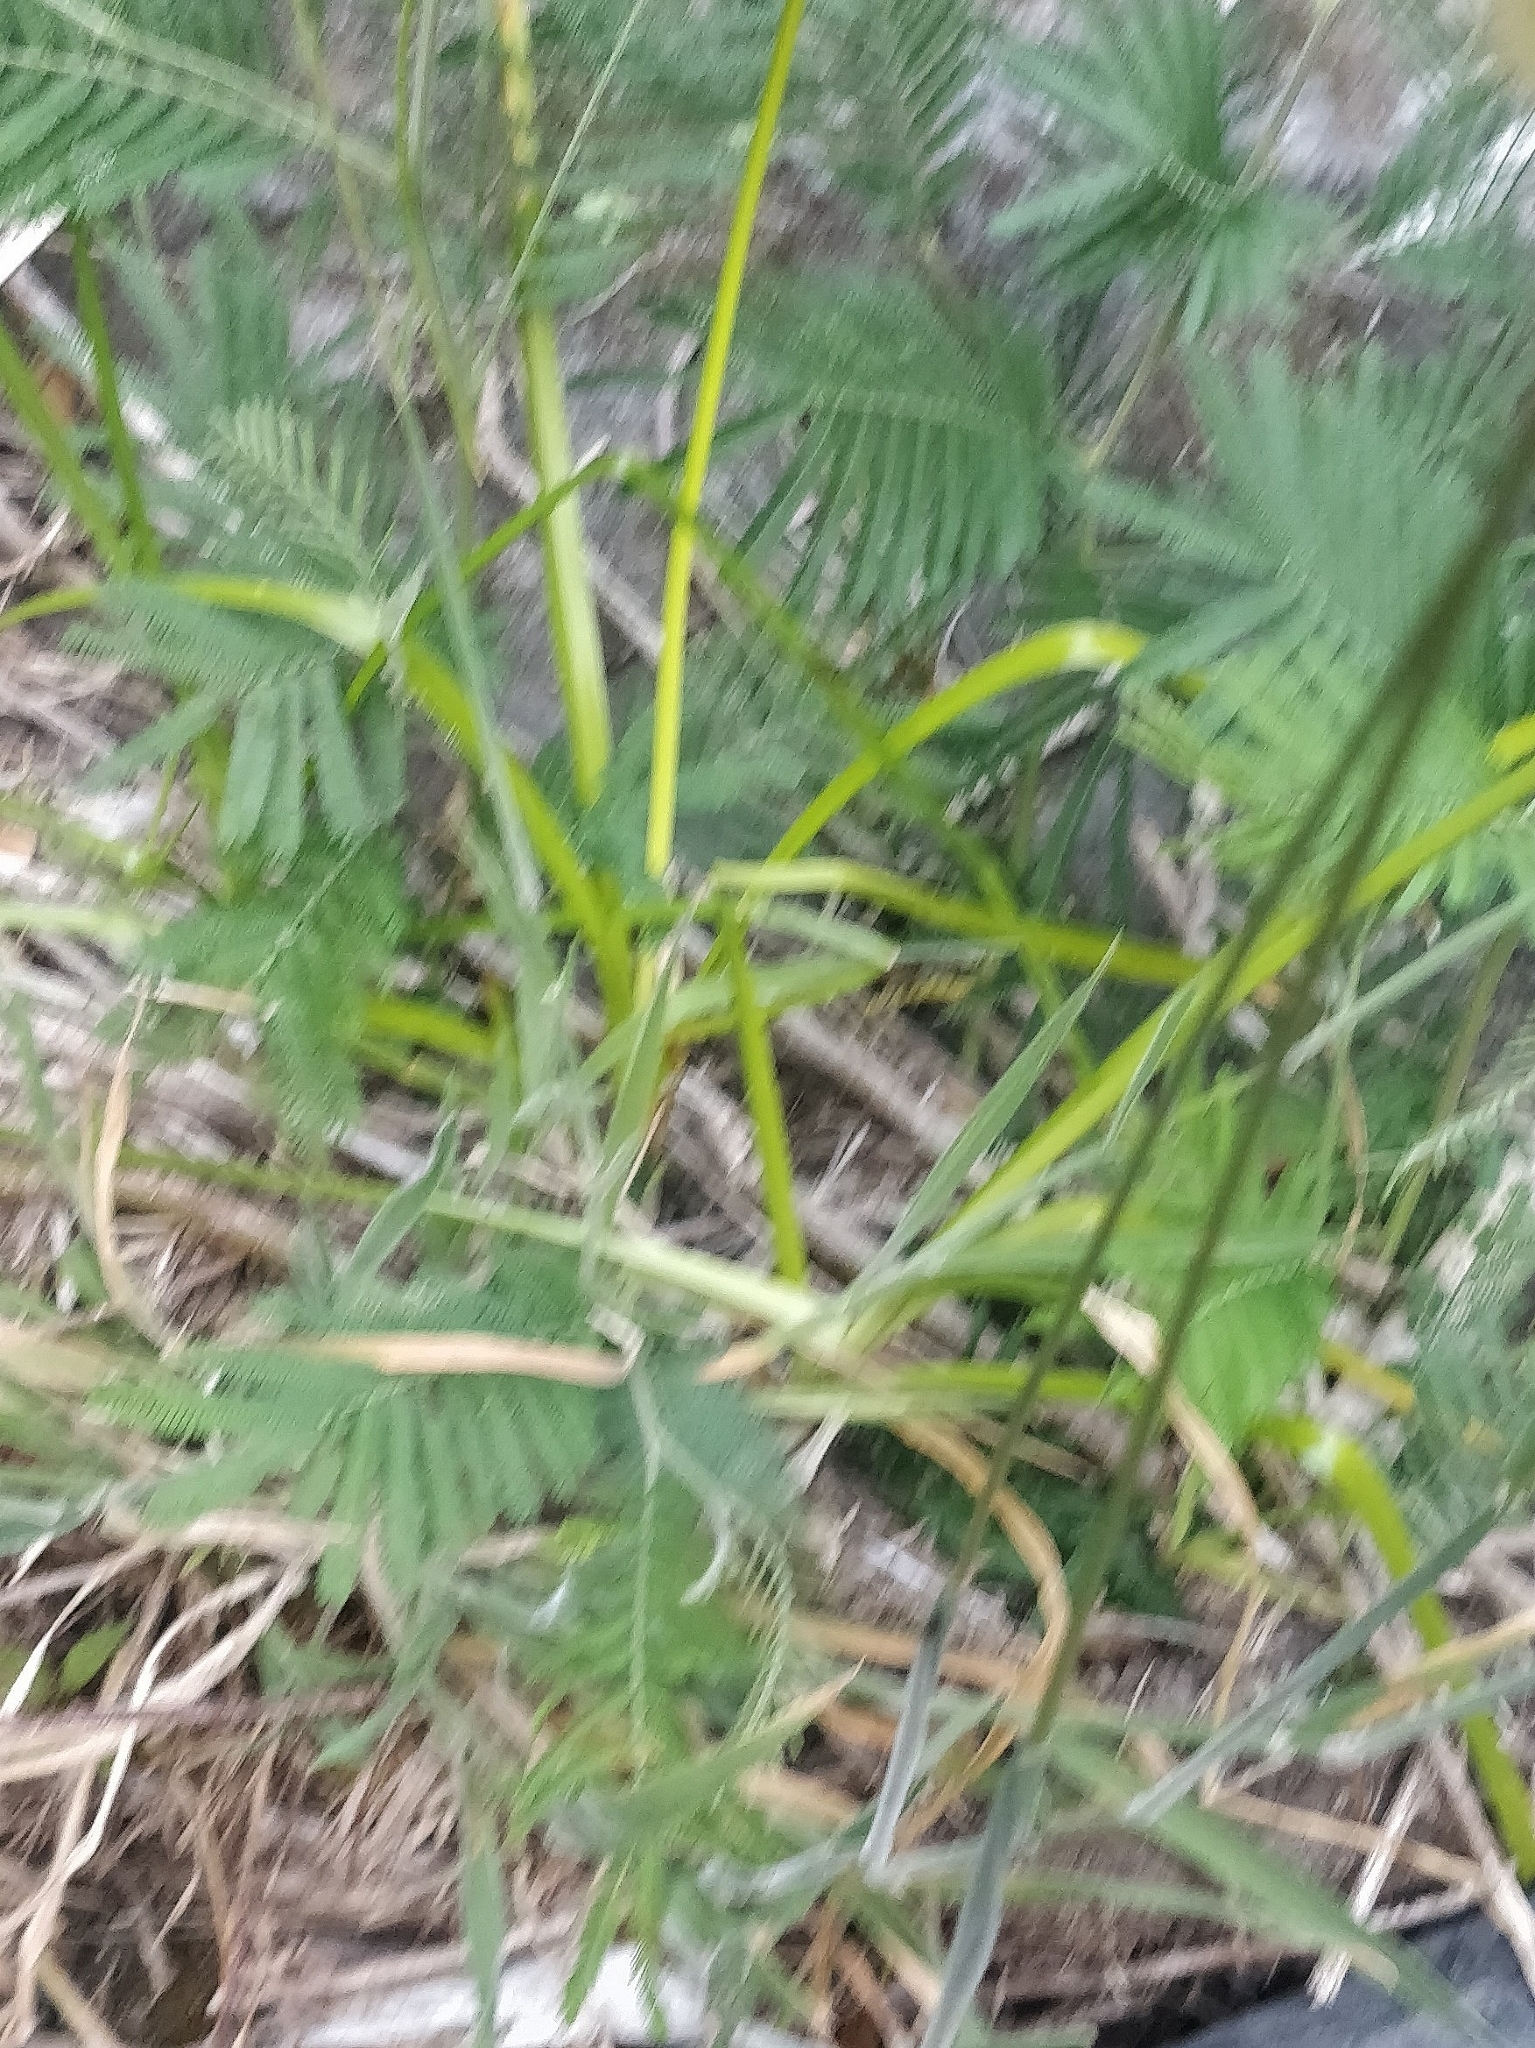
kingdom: Plantae
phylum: Tracheophyta
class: Liliopsida
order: Poales
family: Poaceae
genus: Holcus
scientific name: Holcus lanatus
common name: Yorkshire-fog
